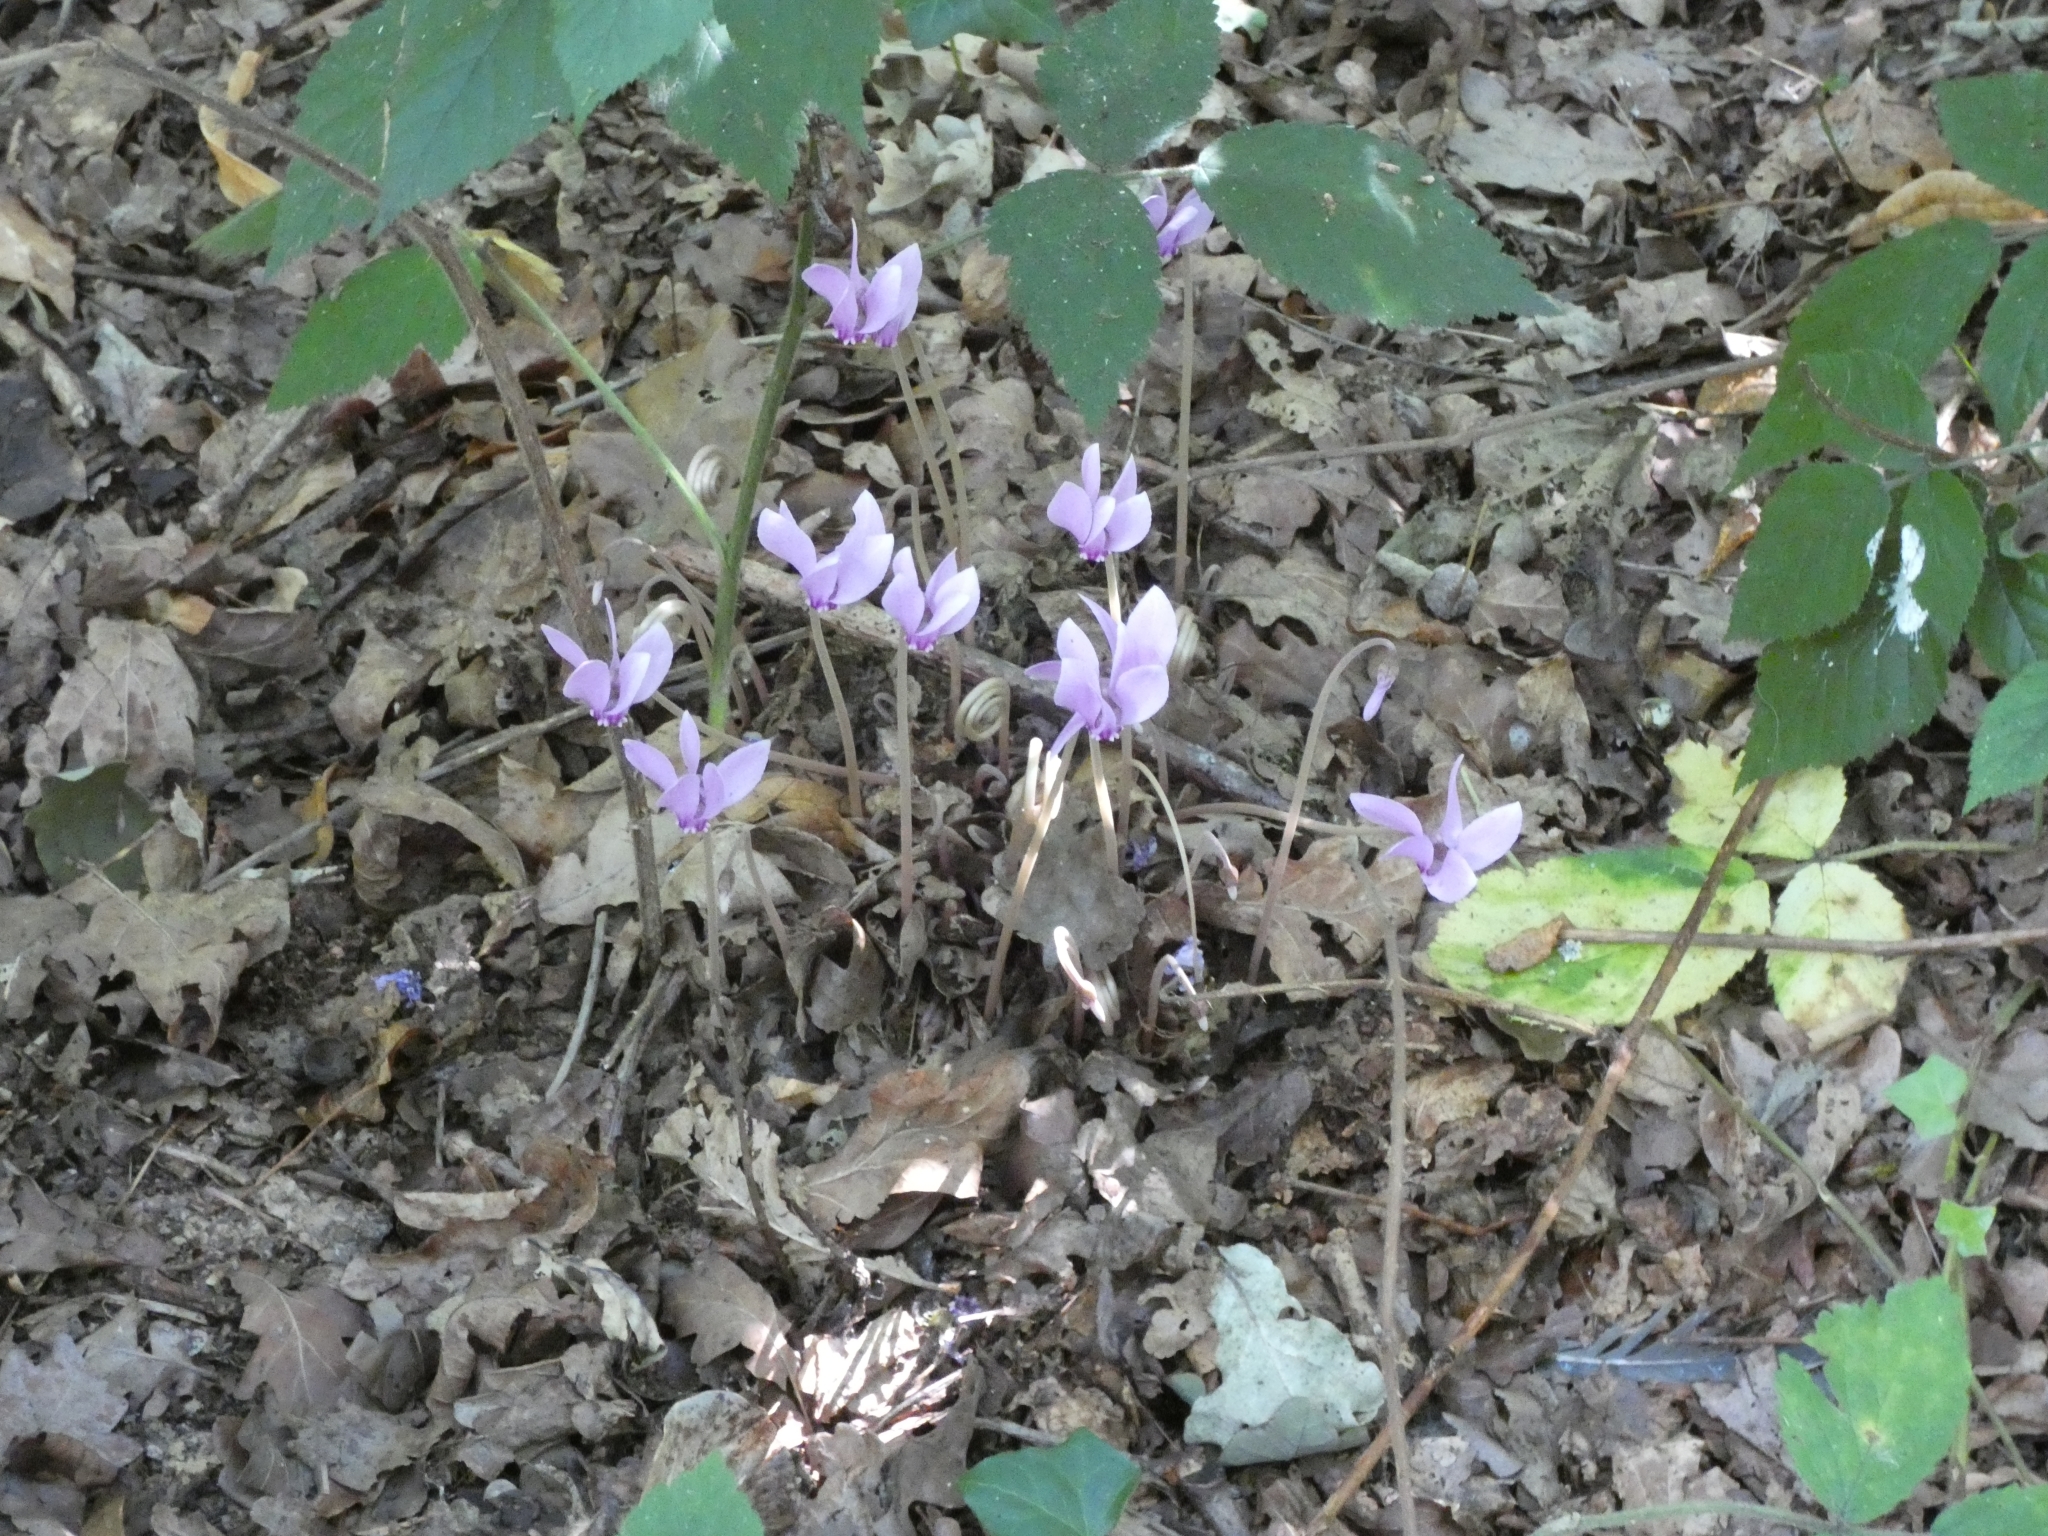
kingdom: Plantae
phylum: Tracheophyta
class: Magnoliopsida
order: Ericales
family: Primulaceae
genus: Cyclamen
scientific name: Cyclamen hederifolium
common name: Sowbread
